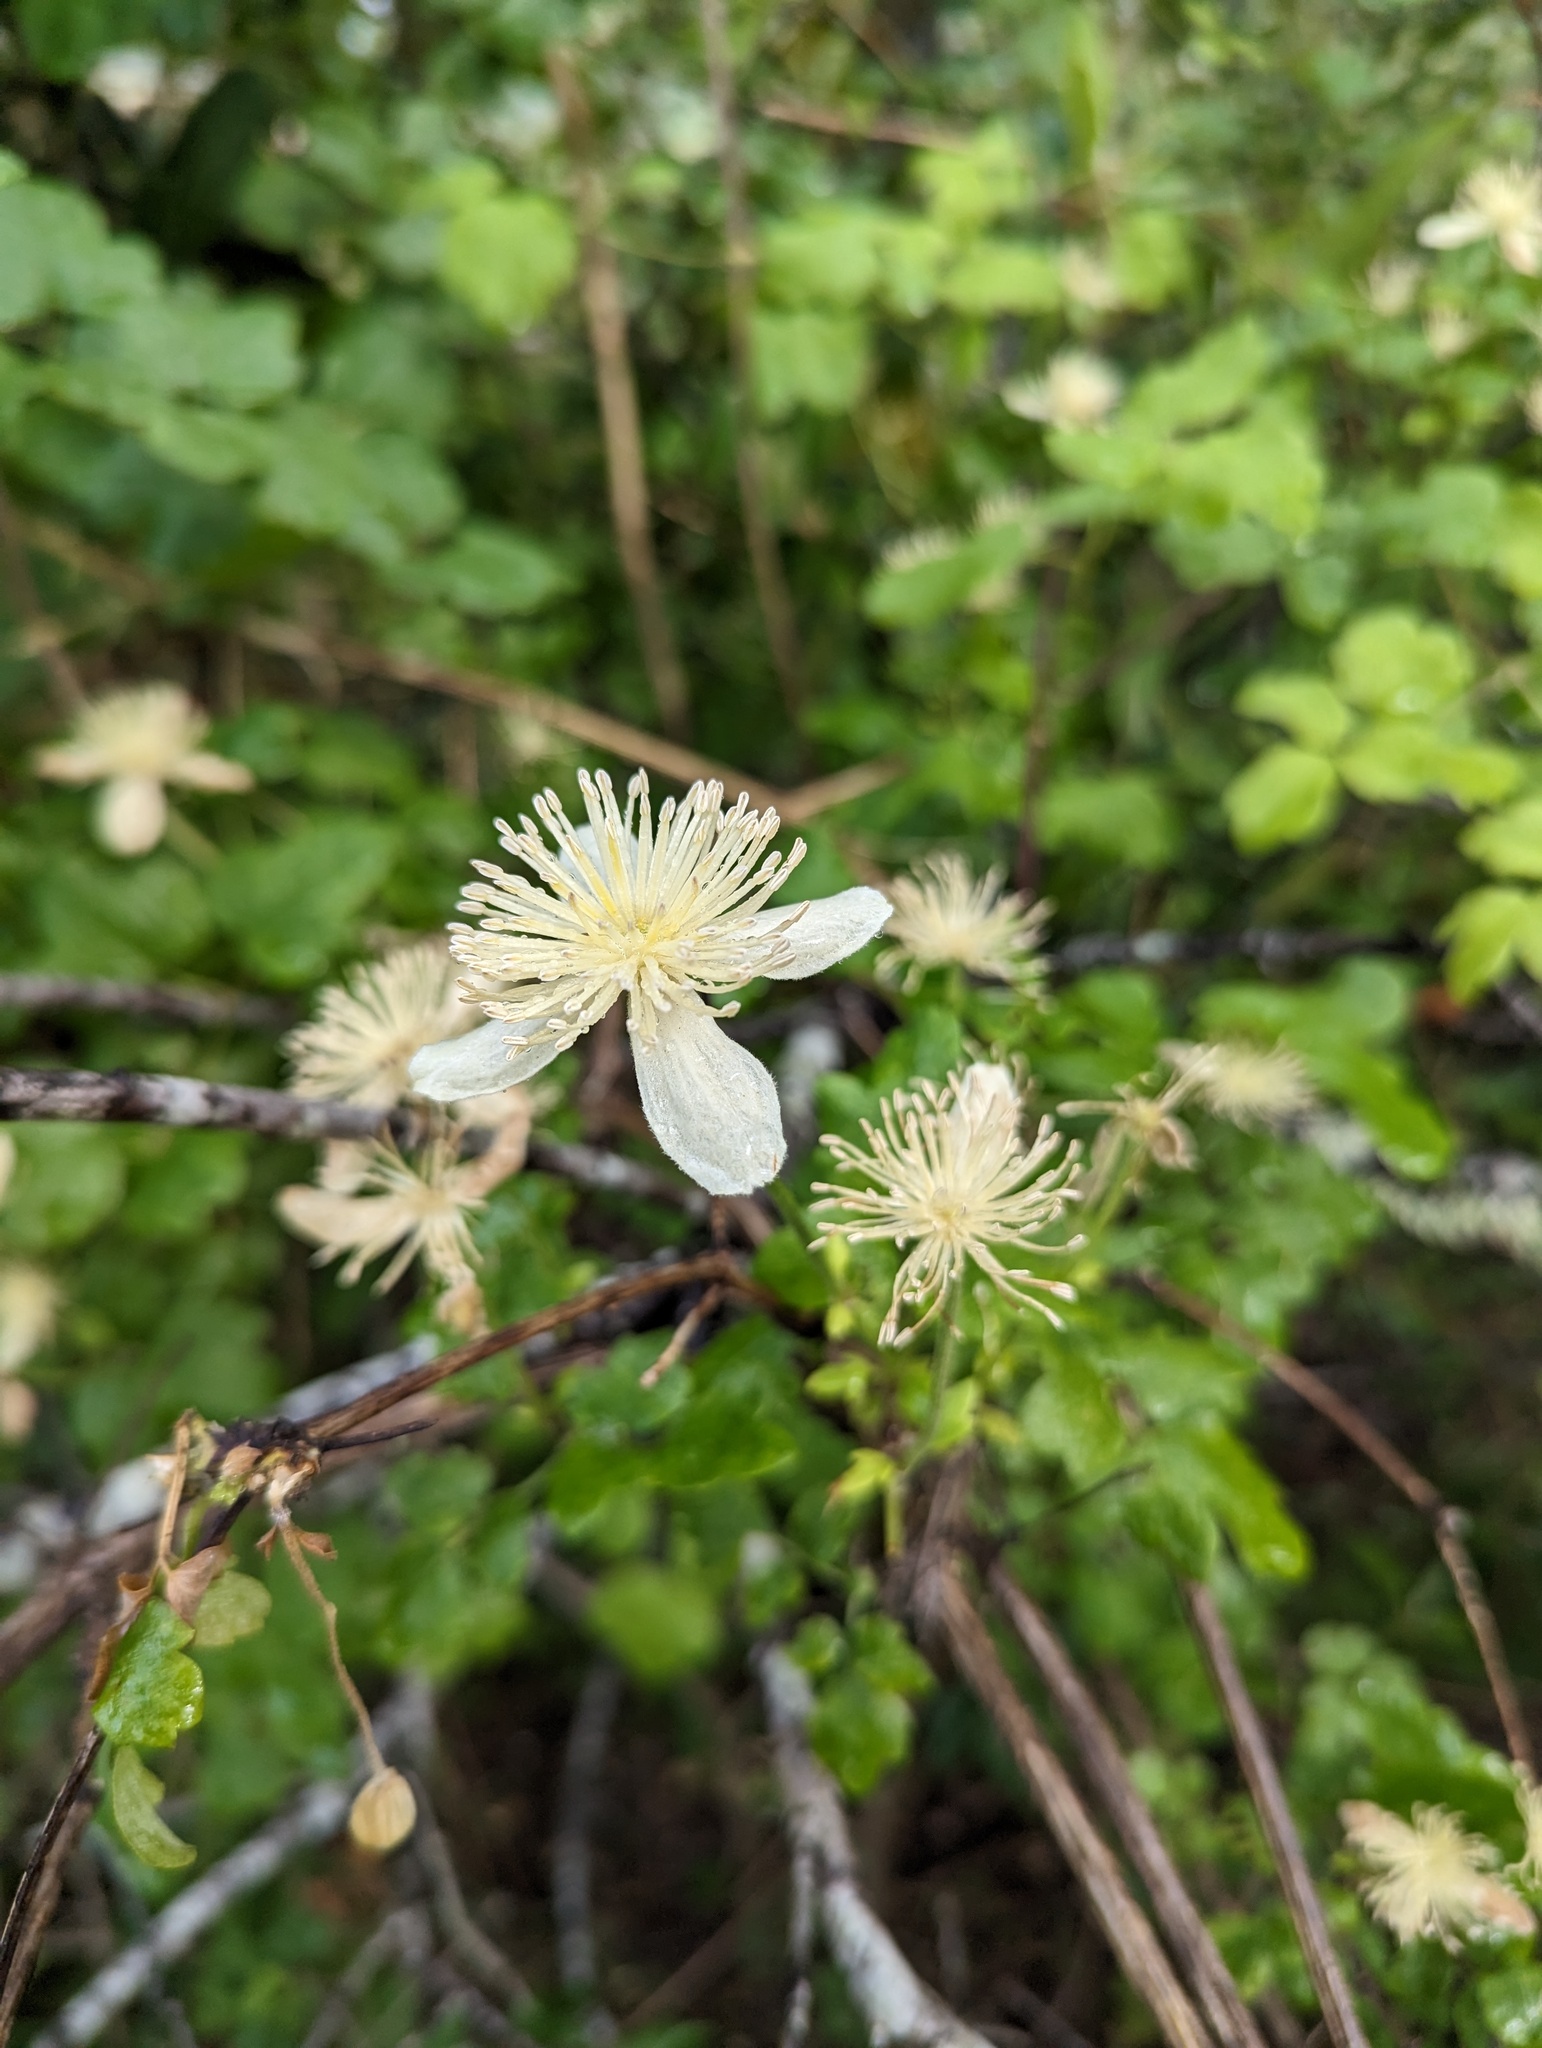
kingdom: Plantae
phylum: Tracheophyta
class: Magnoliopsida
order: Ranunculales
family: Ranunculaceae
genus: Clematis
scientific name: Clematis lasiantha
